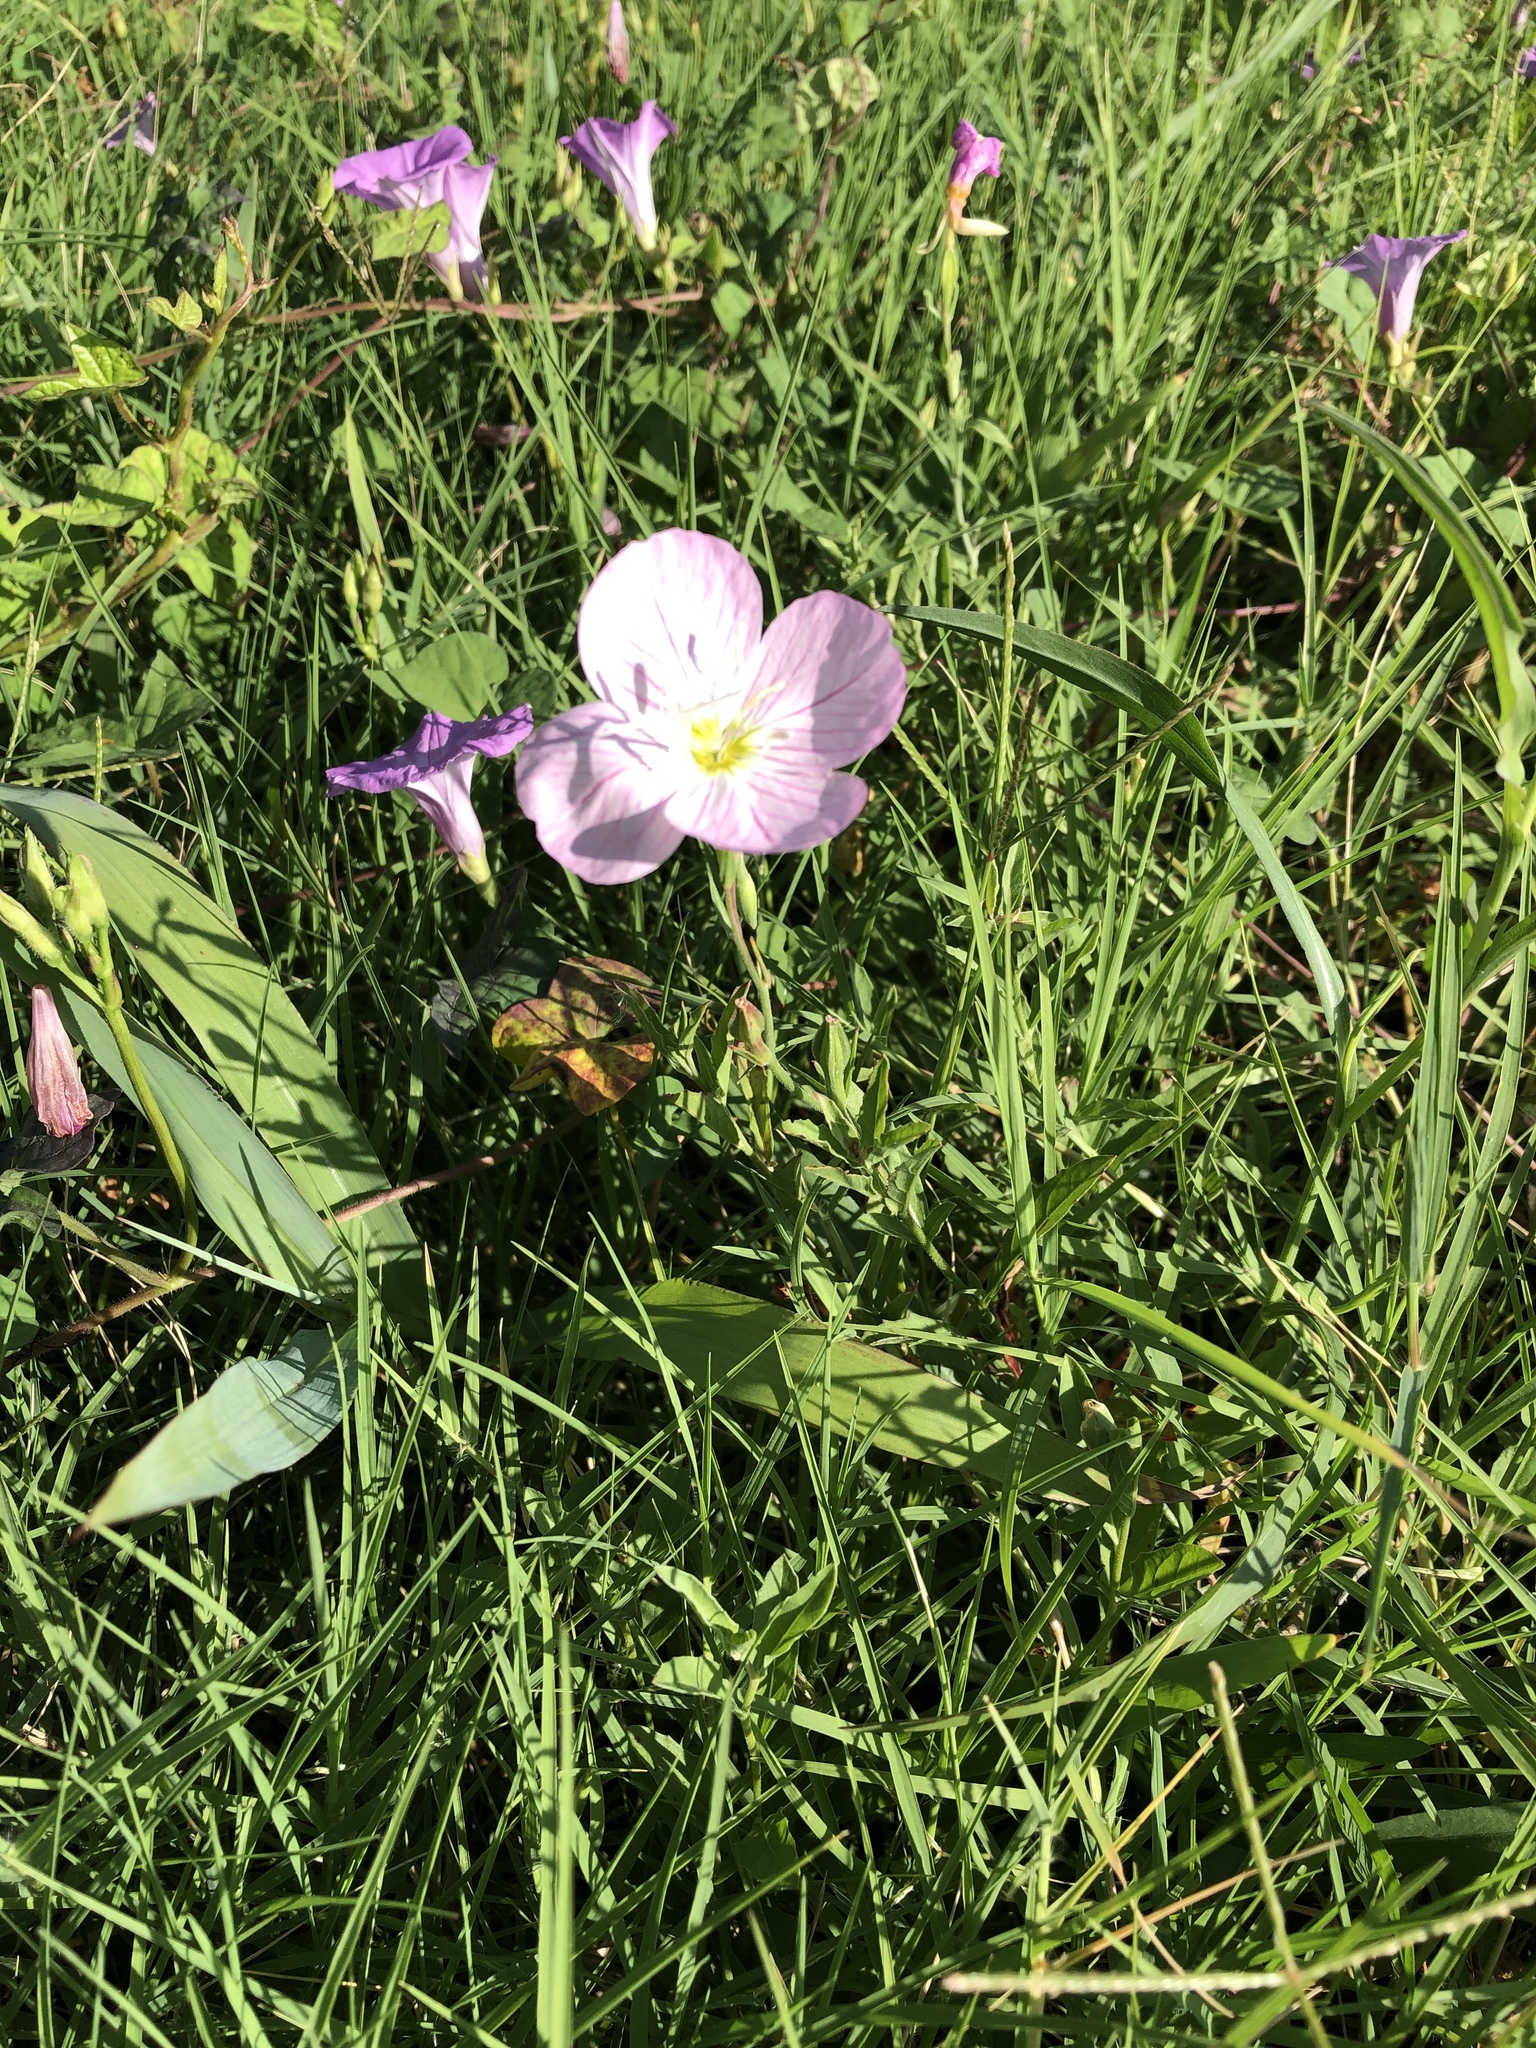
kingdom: Plantae
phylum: Tracheophyta
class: Magnoliopsida
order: Myrtales
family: Onagraceae
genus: Oenothera
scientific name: Oenothera speciosa
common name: White evening-primrose
